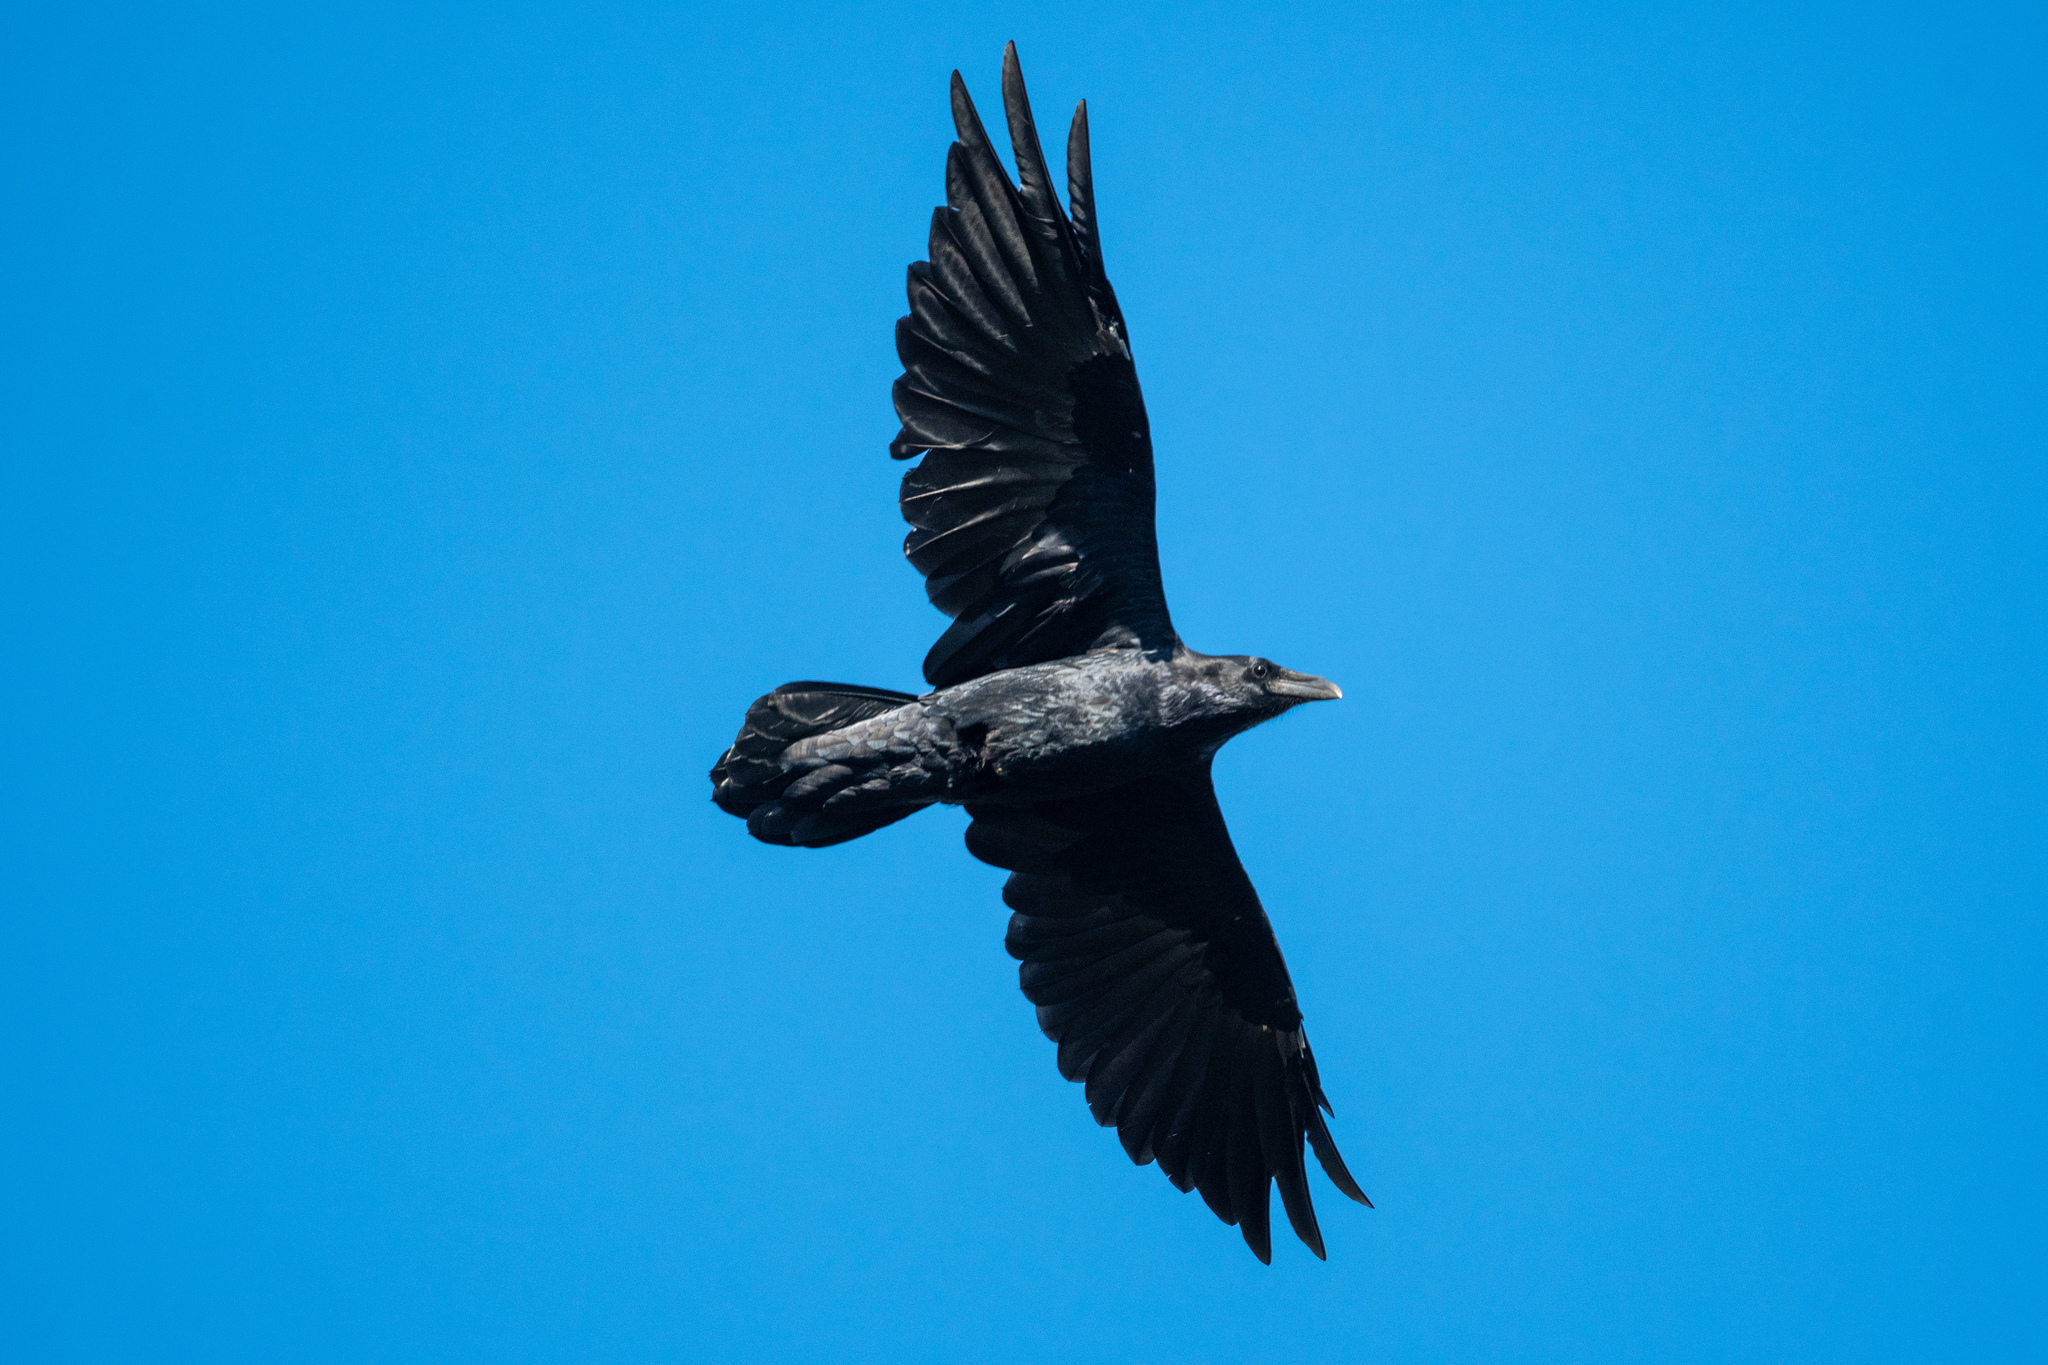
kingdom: Animalia
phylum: Chordata
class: Aves
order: Passeriformes
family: Corvidae
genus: Corvus
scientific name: Corvus corax
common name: Common raven
